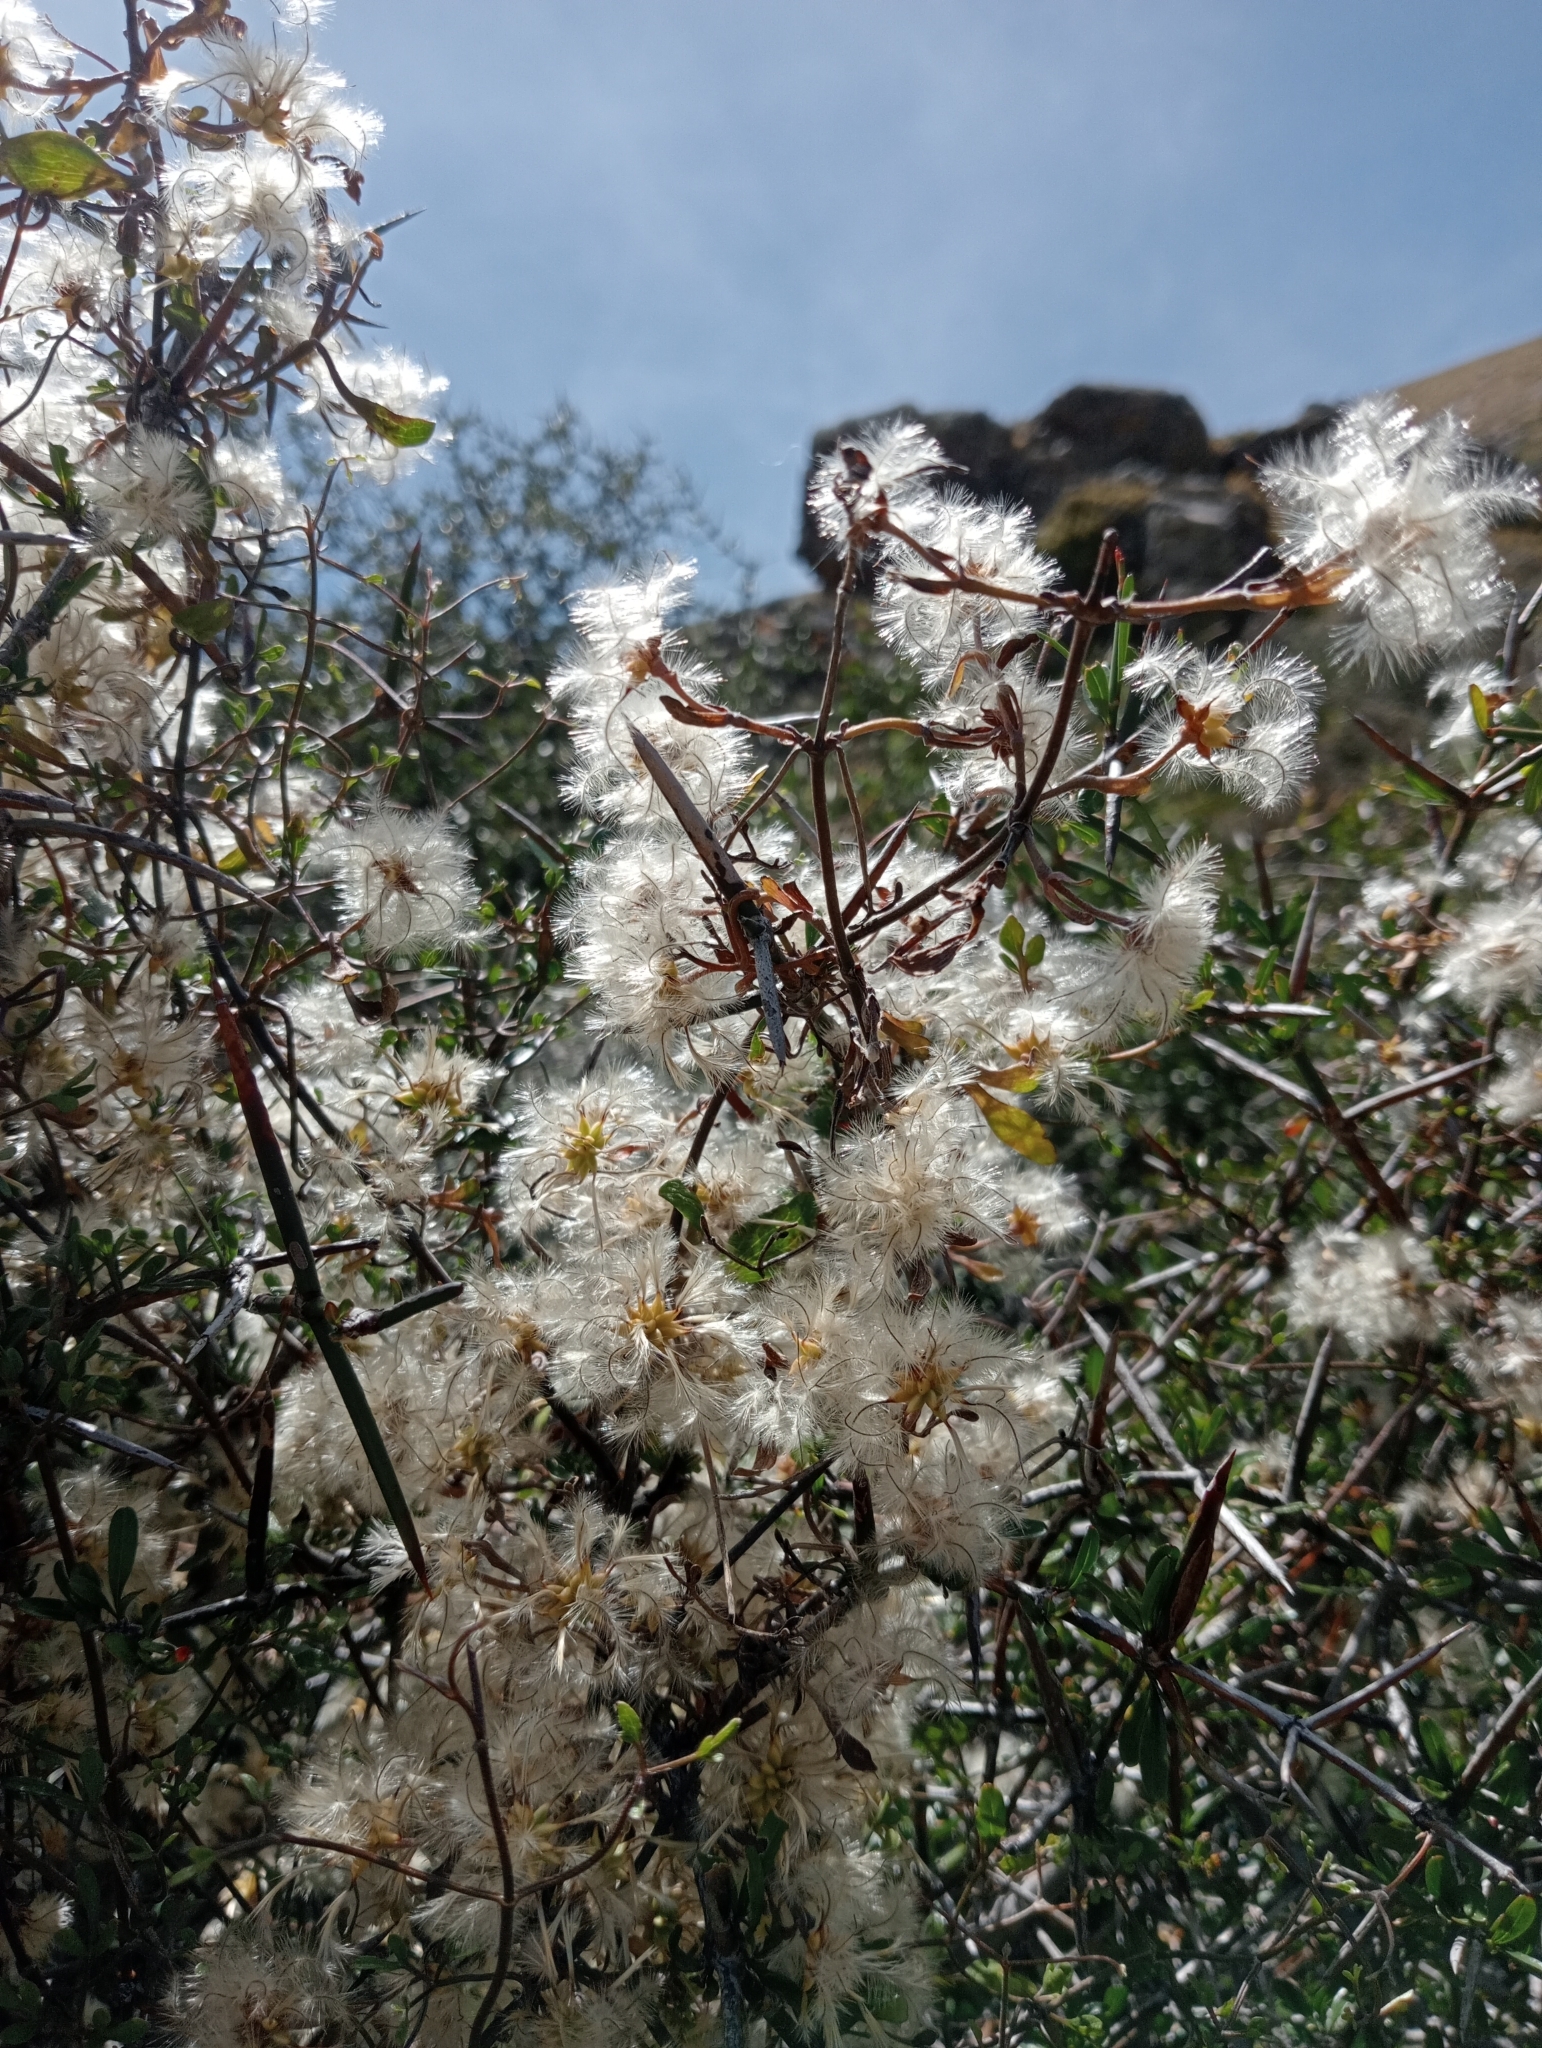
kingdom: Plantae
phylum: Tracheophyta
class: Magnoliopsida
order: Ranunculales
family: Ranunculaceae
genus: Clematis
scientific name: Clematis marata
